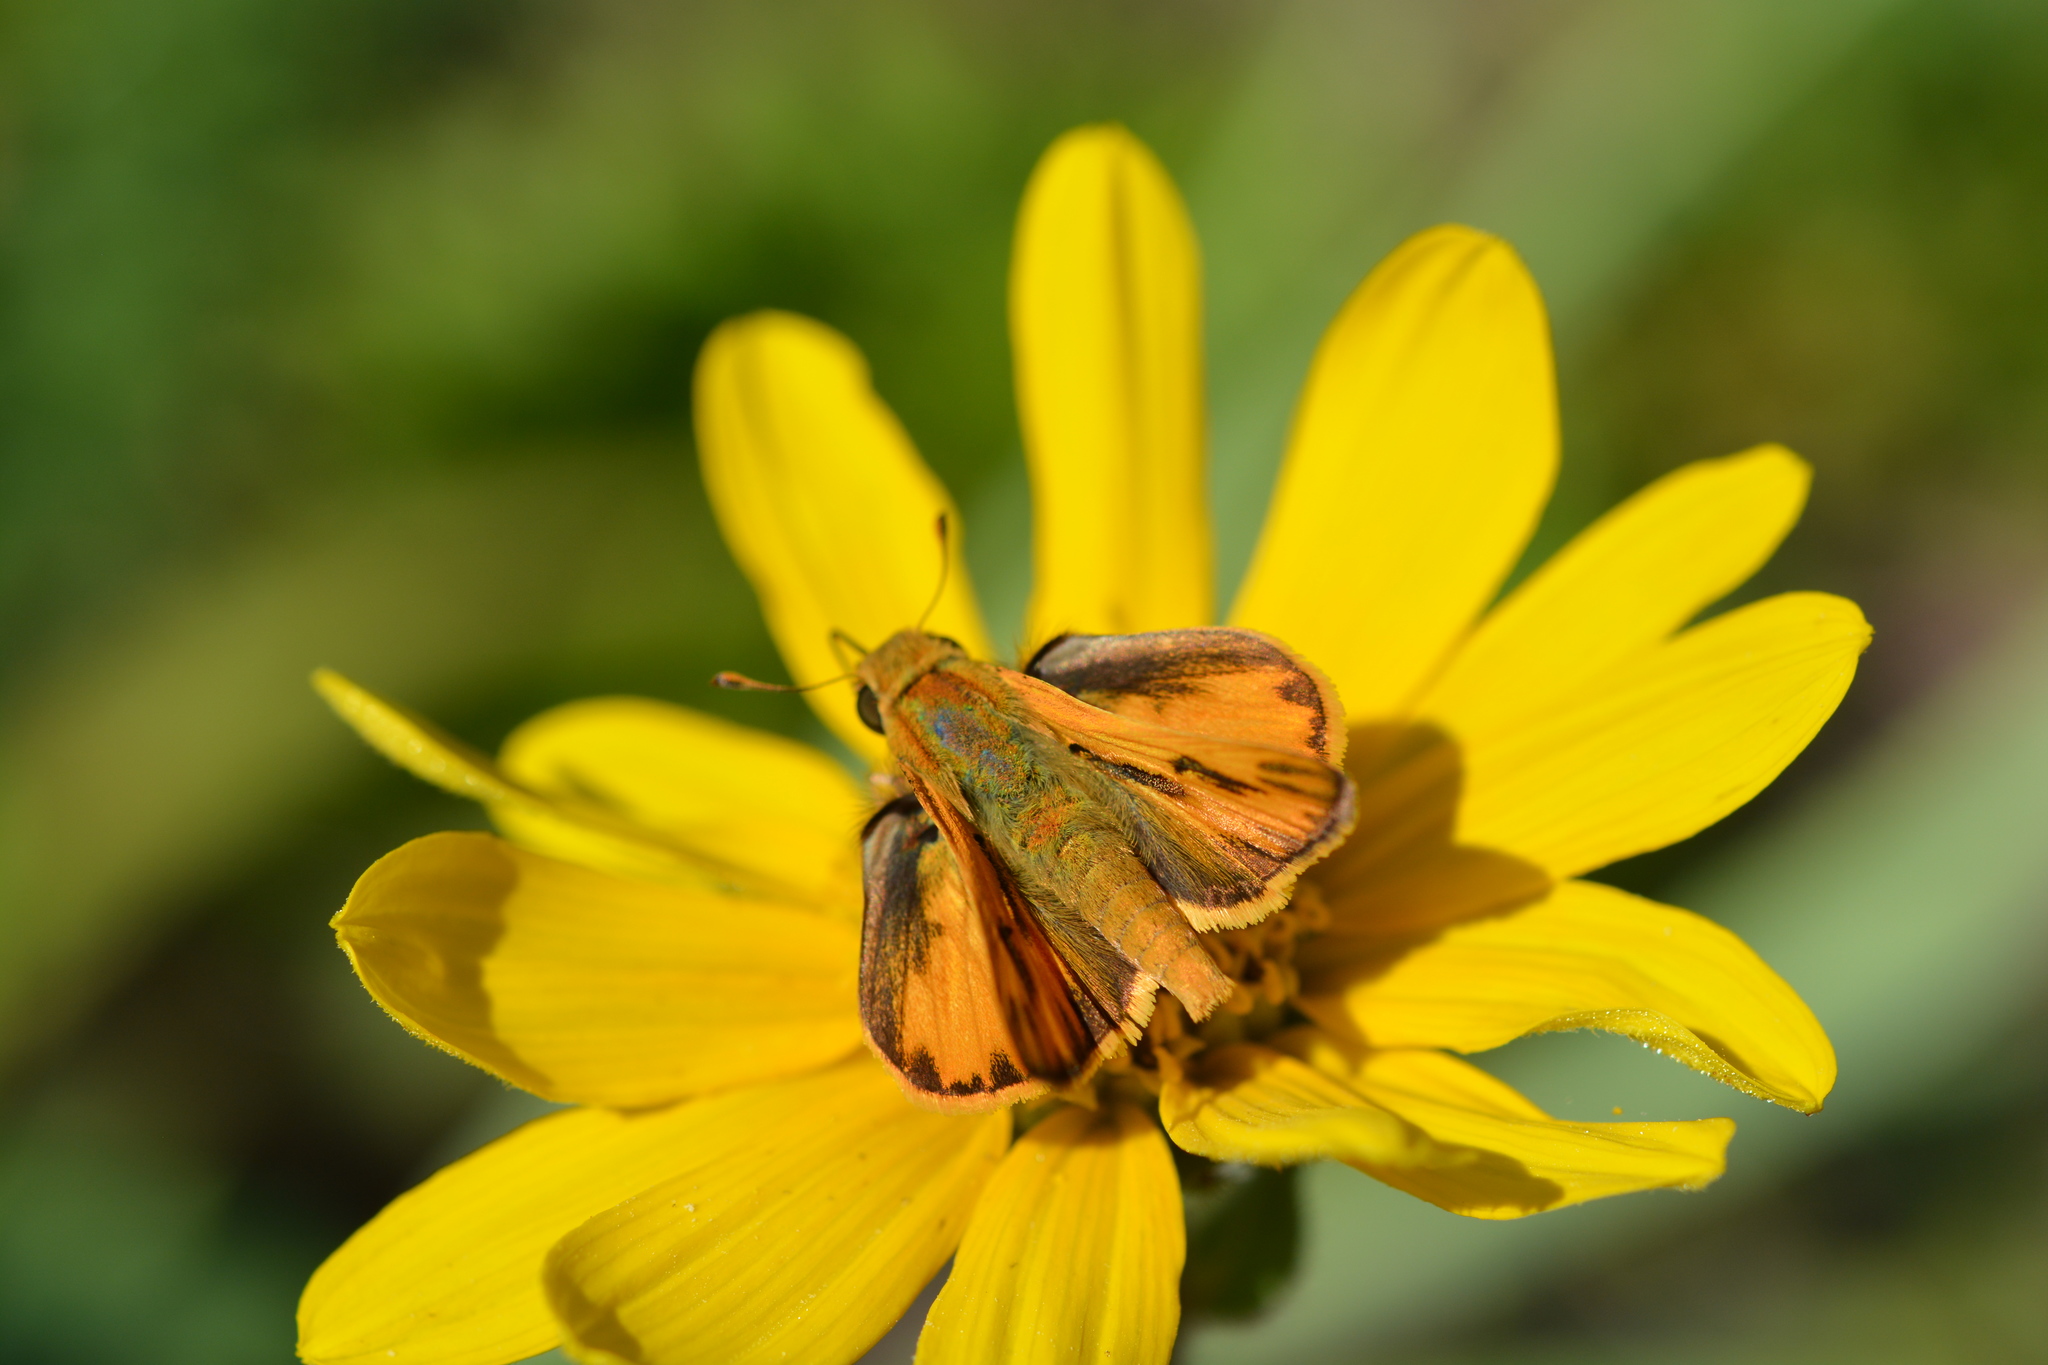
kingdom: Animalia
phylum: Arthropoda
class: Insecta
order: Lepidoptera
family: Hesperiidae
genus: Hylephila
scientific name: Hylephila phyleus
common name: Fiery skipper
